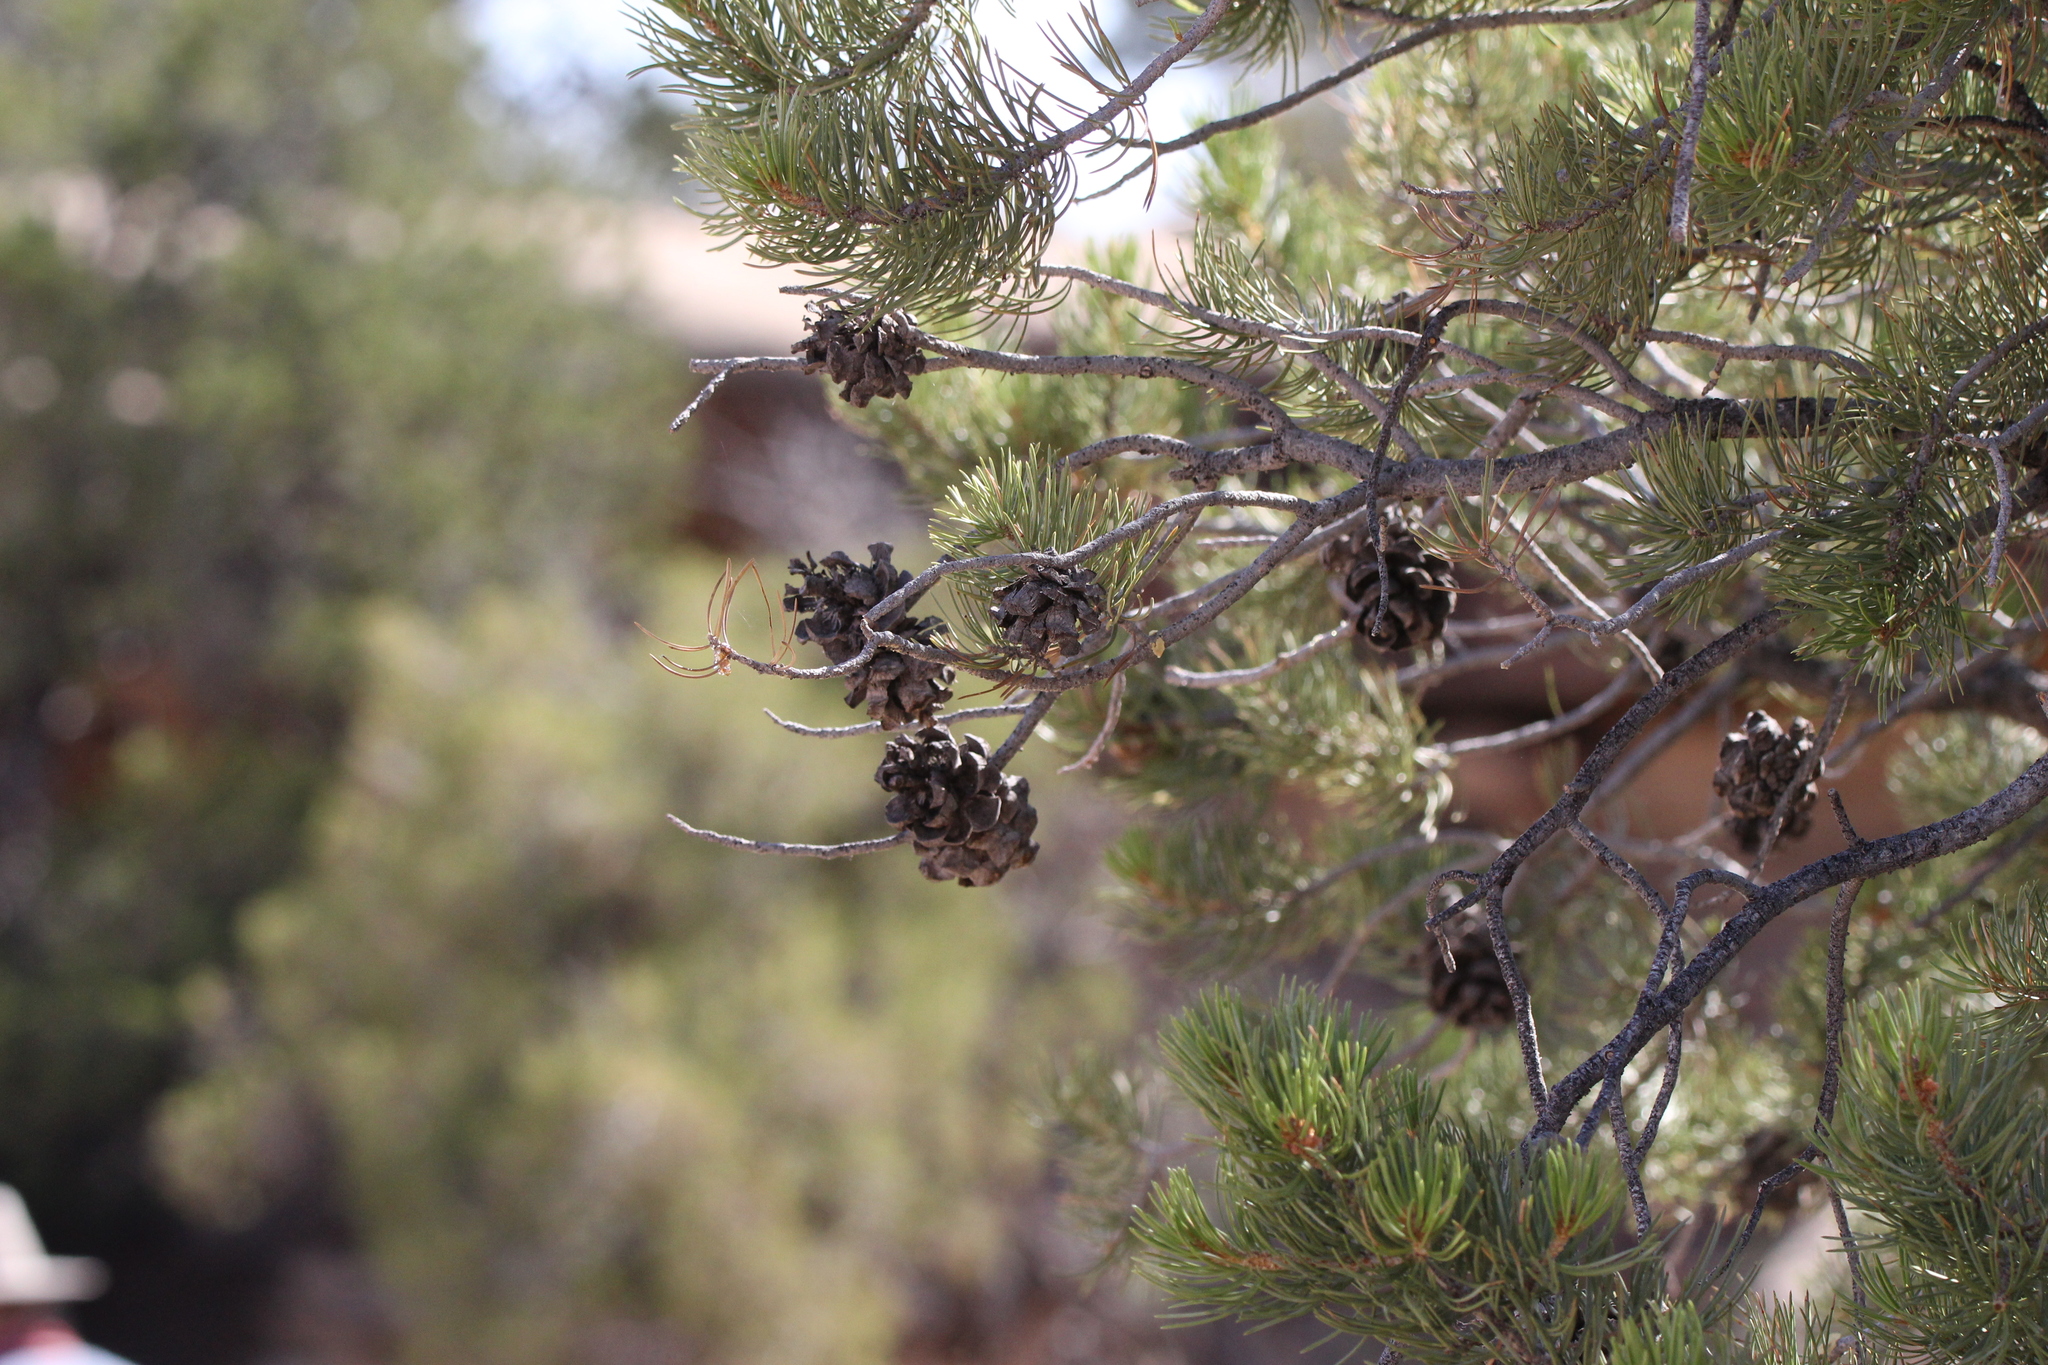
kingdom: Plantae
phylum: Tracheophyta
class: Pinopsida
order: Pinales
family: Pinaceae
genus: Pinus
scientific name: Pinus edulis
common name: Colorado pinyon
